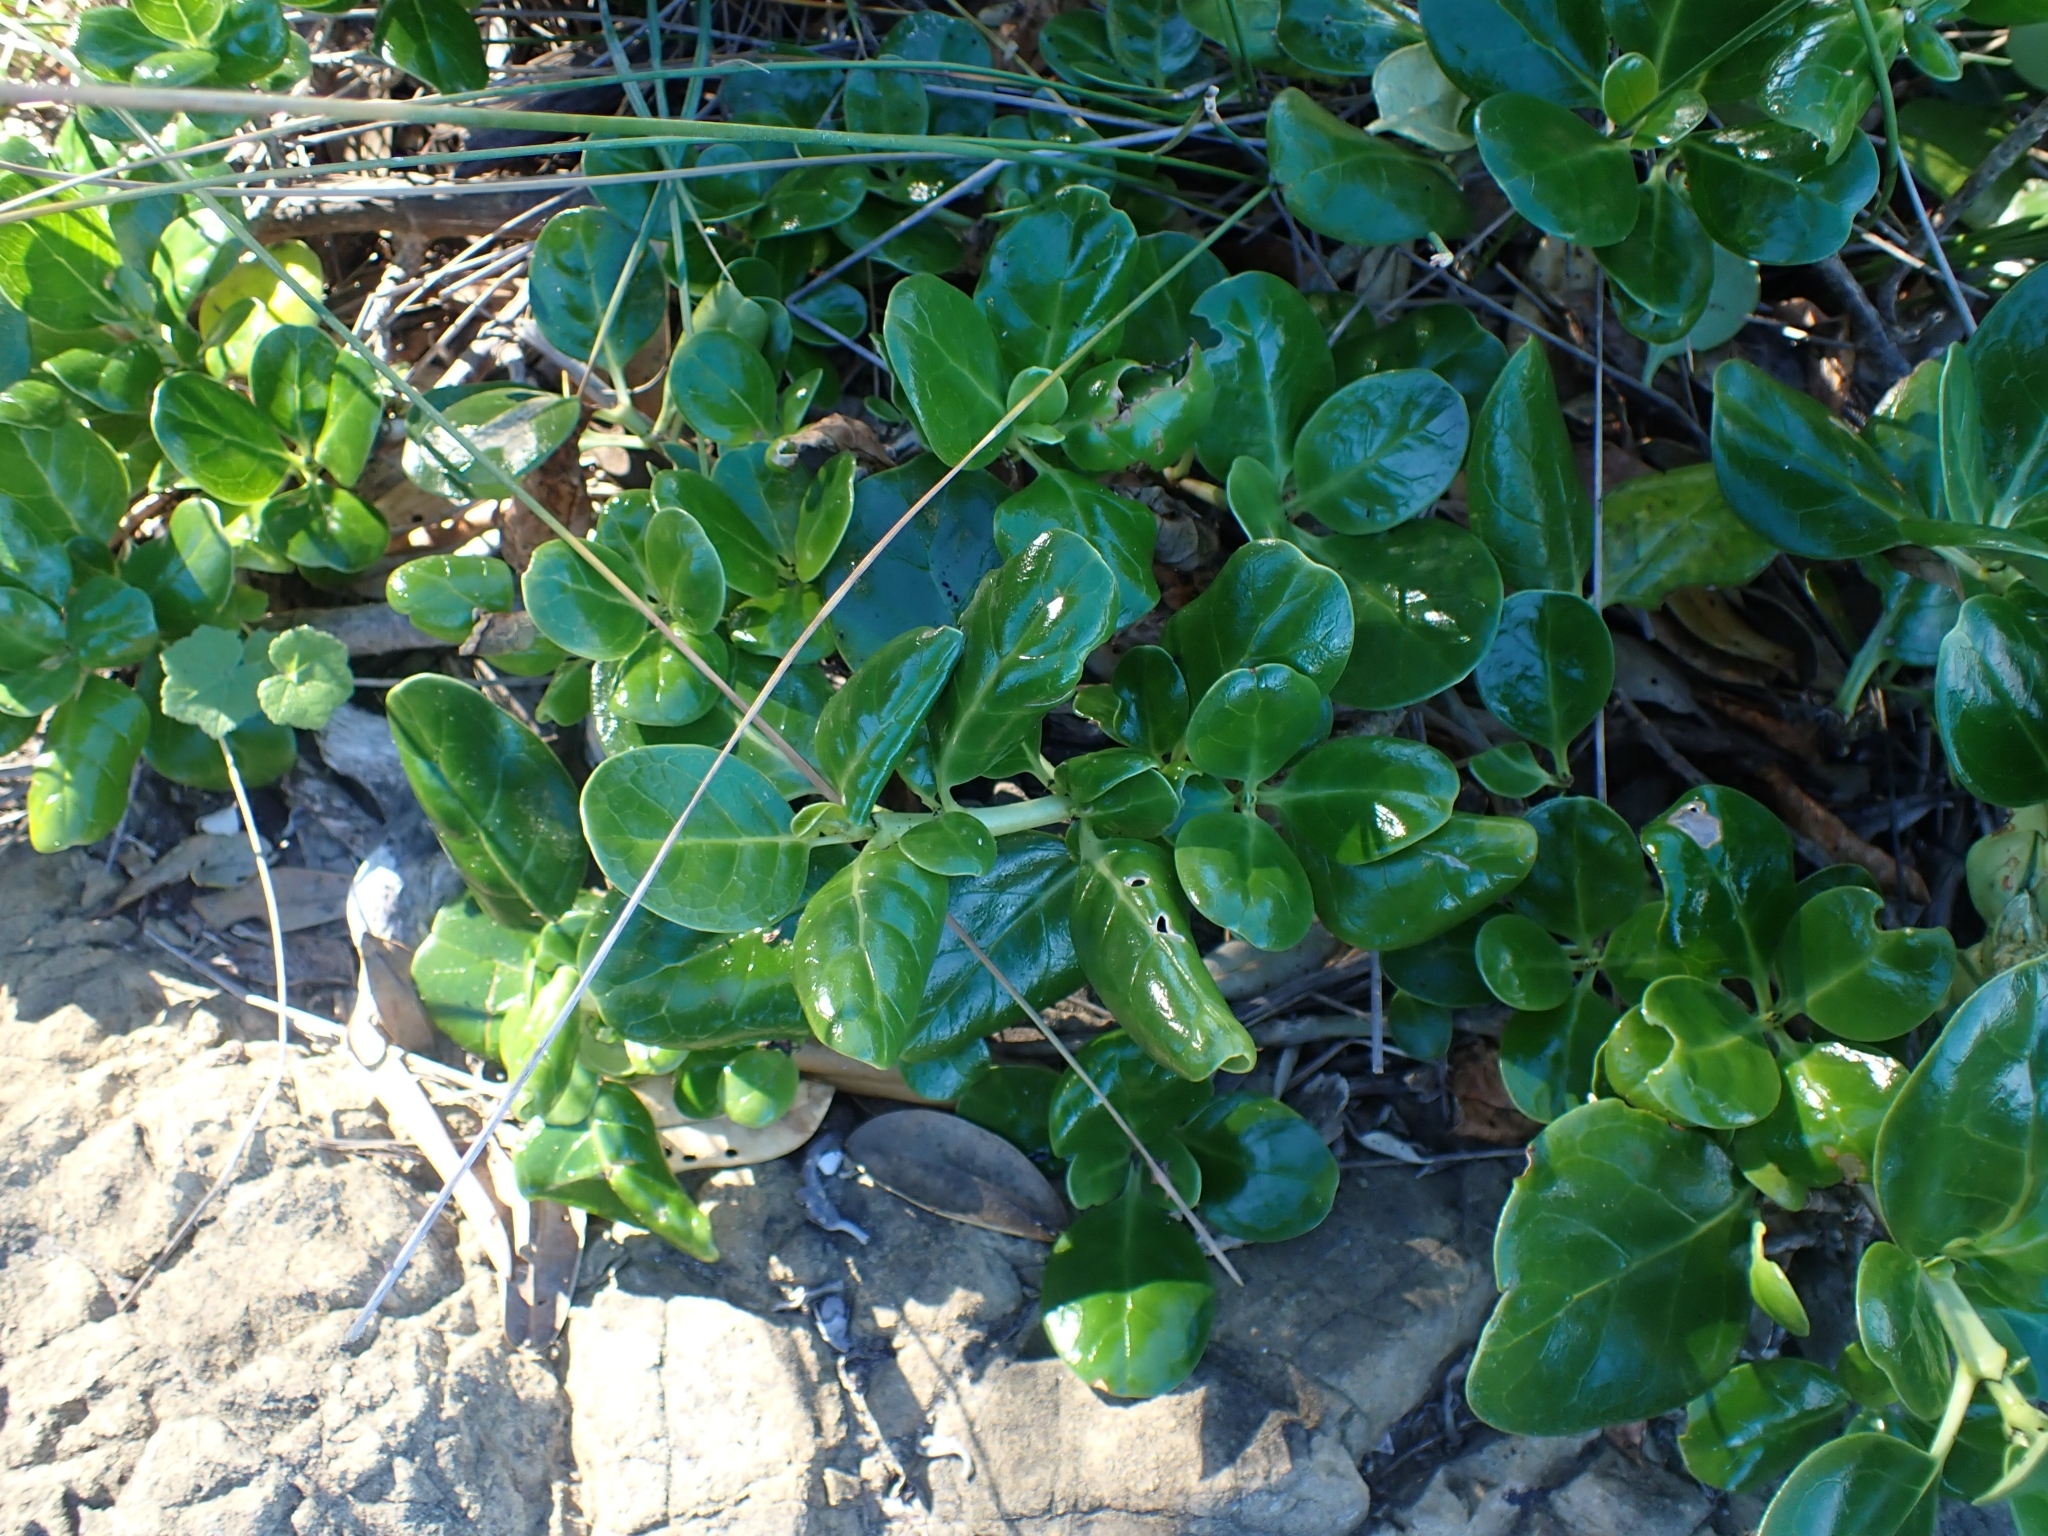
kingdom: Plantae
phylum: Tracheophyta
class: Magnoliopsida
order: Gentianales
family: Rubiaceae
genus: Coprosma
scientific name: Coprosma repens
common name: Tree bedstraw
